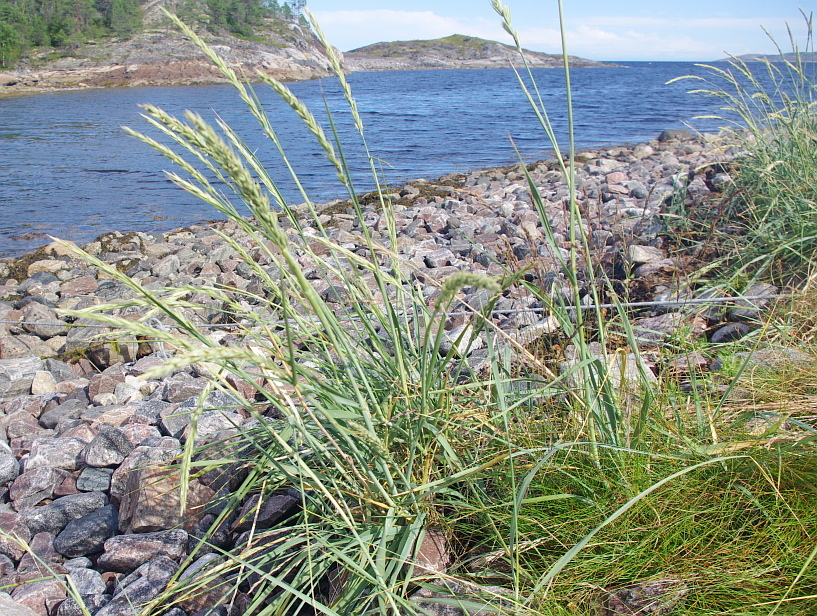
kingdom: Plantae
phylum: Tracheophyta
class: Liliopsida
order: Poales
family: Poaceae
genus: Leymus
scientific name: Leymus arenarius
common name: Lyme-grass
